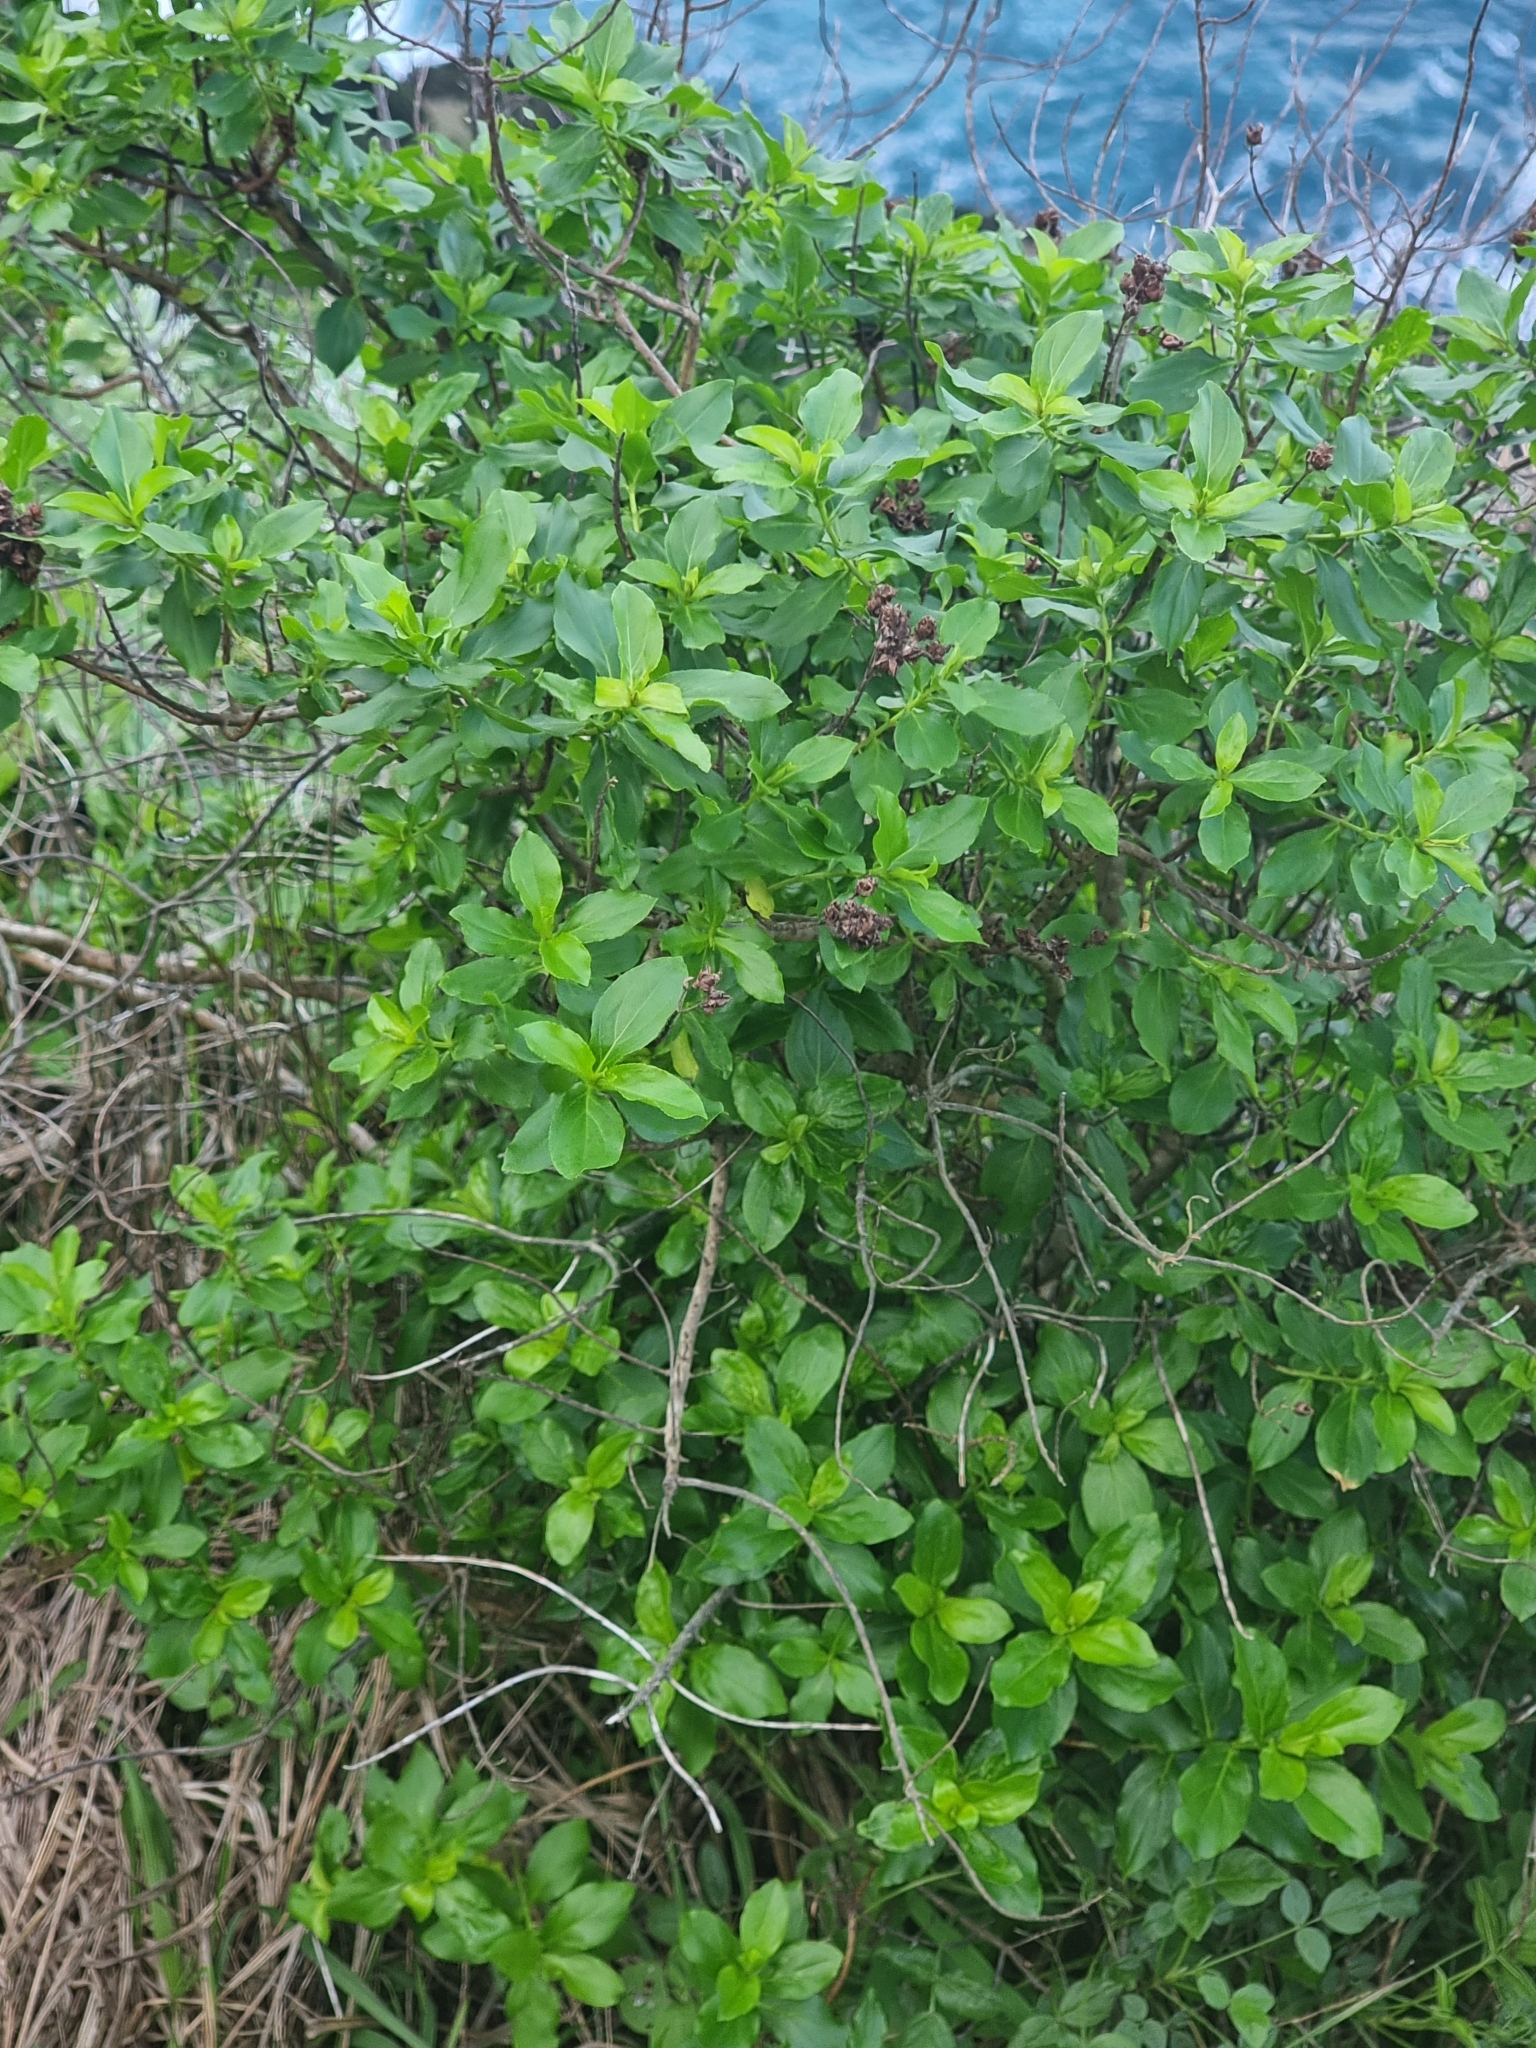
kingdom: Plantae
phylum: Tracheophyta
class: Magnoliopsida
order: Malpighiales
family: Hypericaceae
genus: Hypericum
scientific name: Hypericum glandulosum
